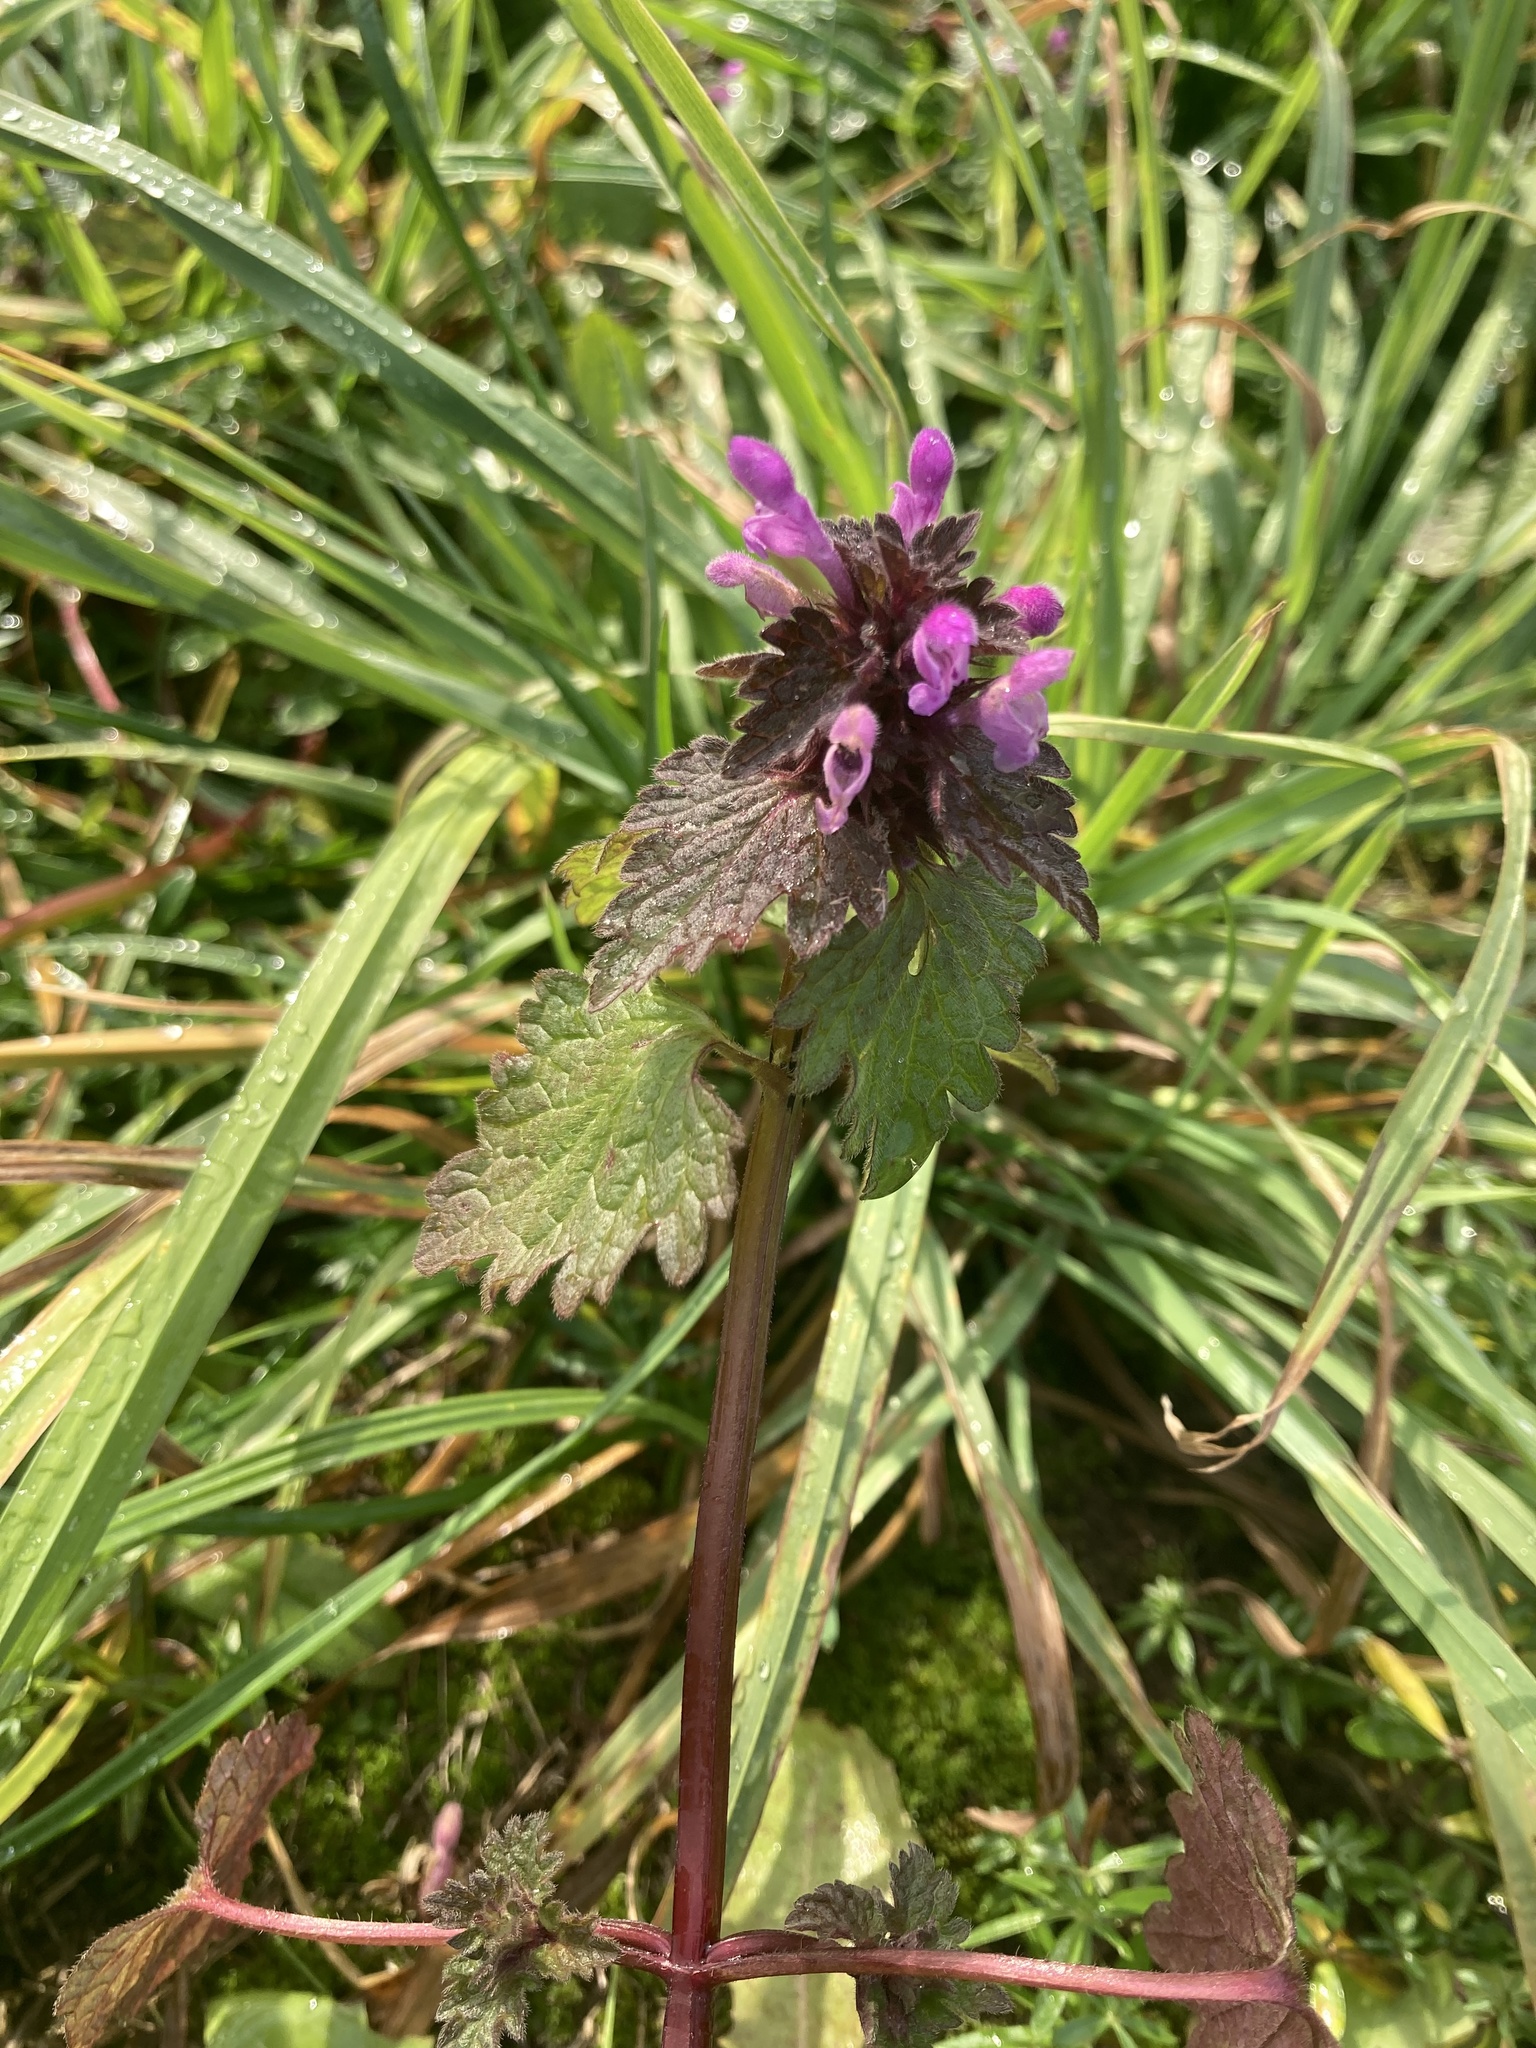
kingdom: Plantae
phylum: Tracheophyta
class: Magnoliopsida
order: Lamiales
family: Lamiaceae
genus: Lamium
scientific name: Lamium purpureum
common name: Red dead-nettle
